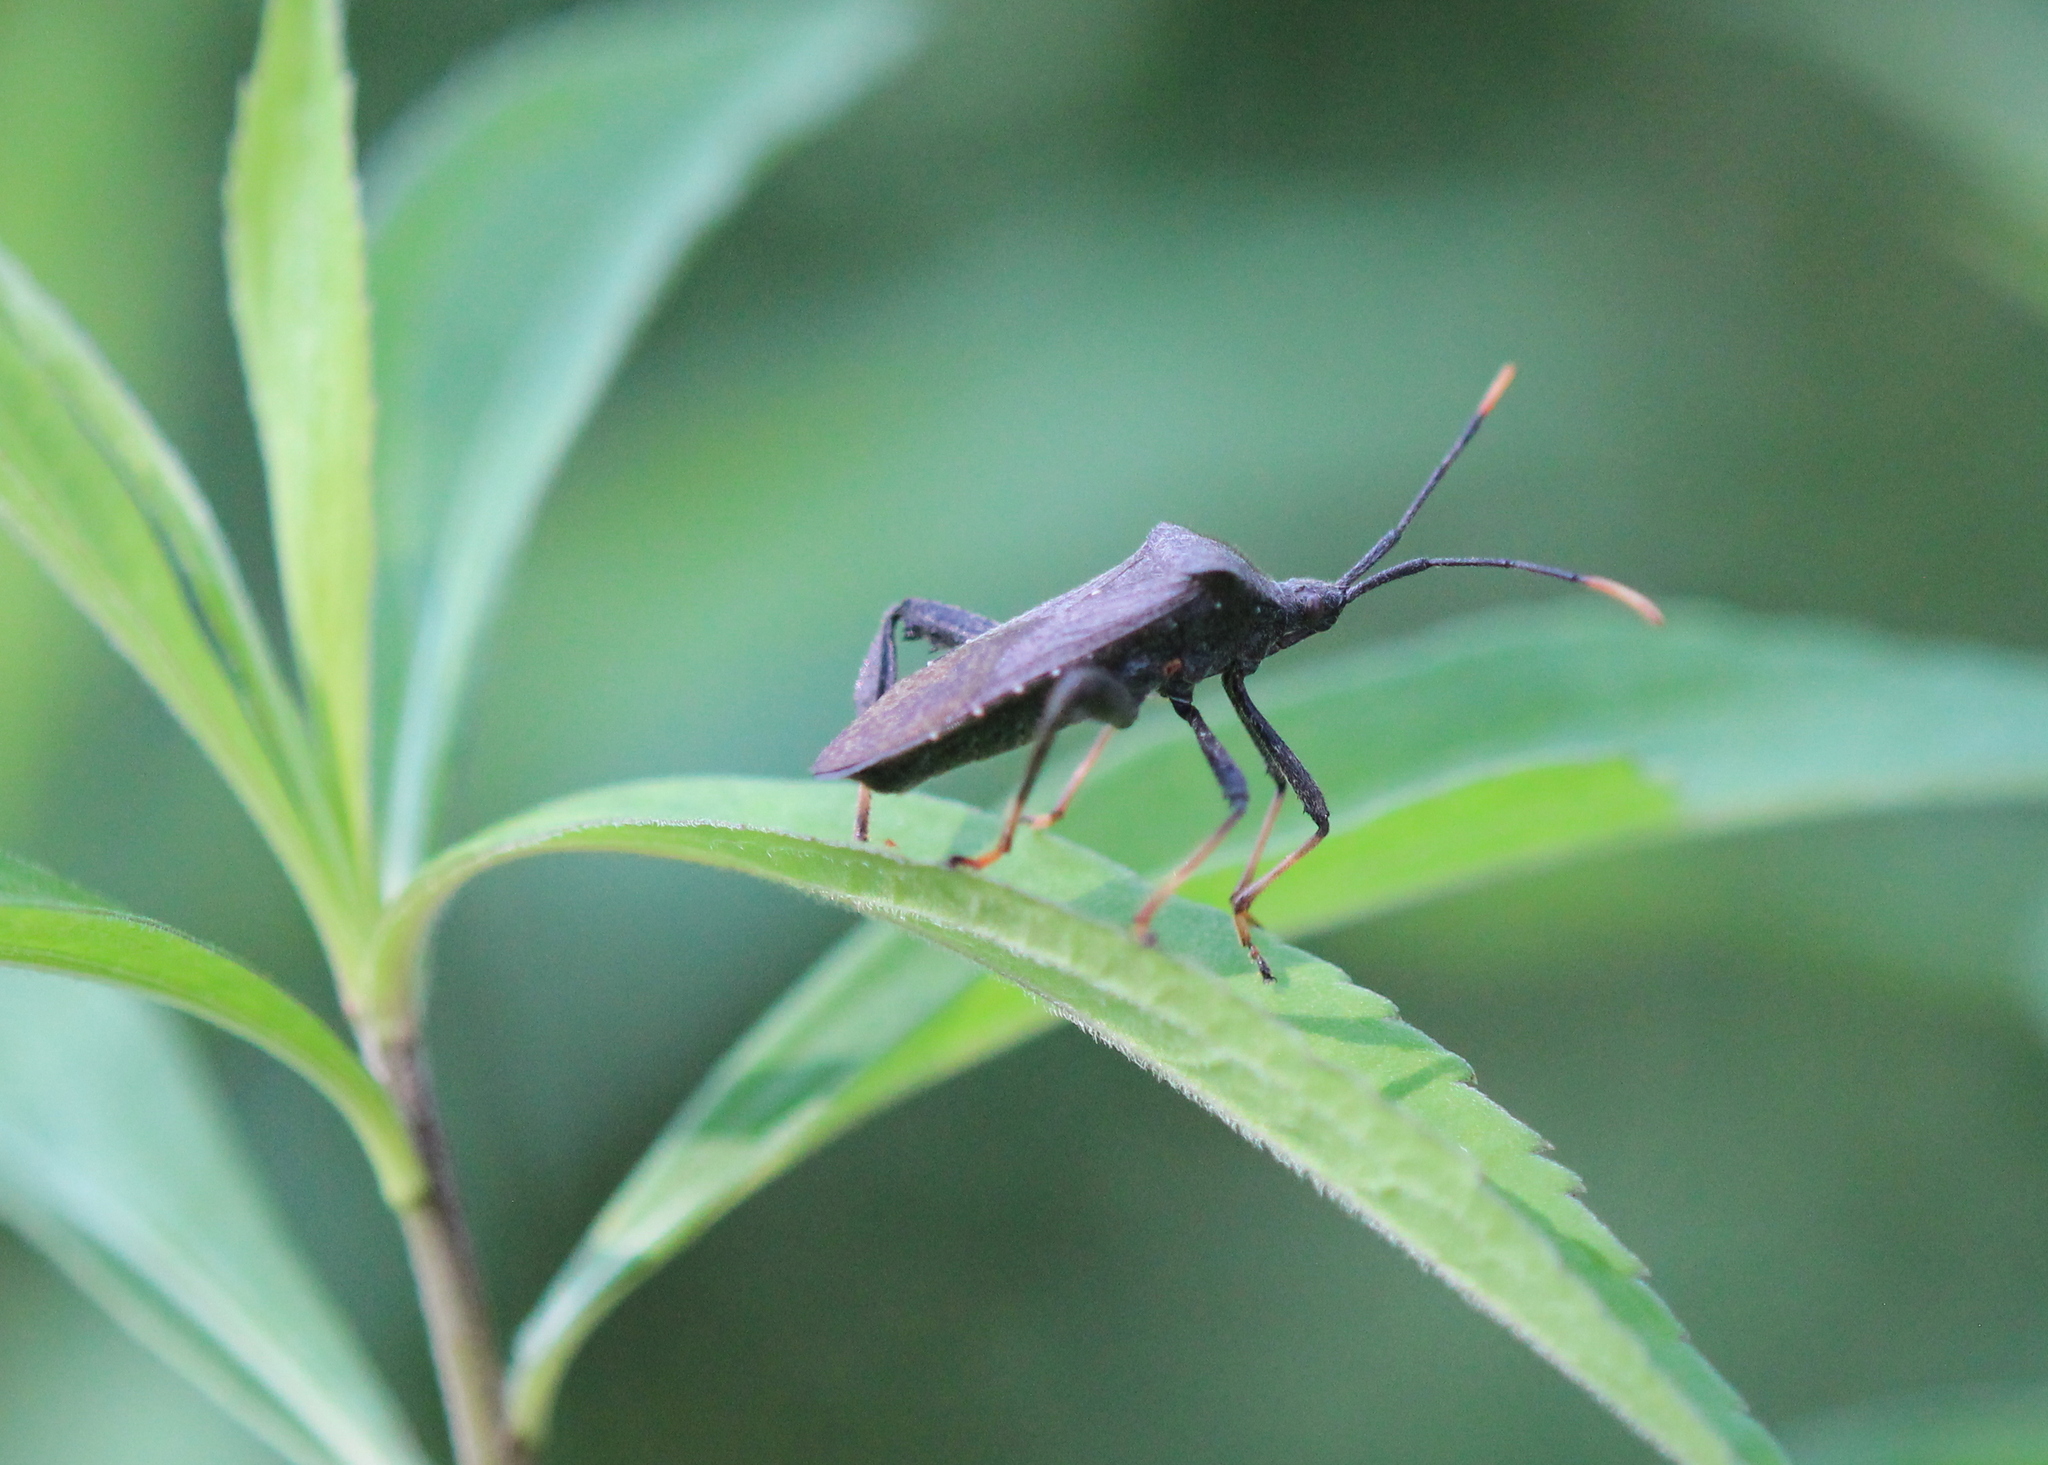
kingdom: Animalia
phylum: Arthropoda
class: Insecta
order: Hemiptera
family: Coreidae
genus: Acanthocephala
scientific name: Acanthocephala terminalis
